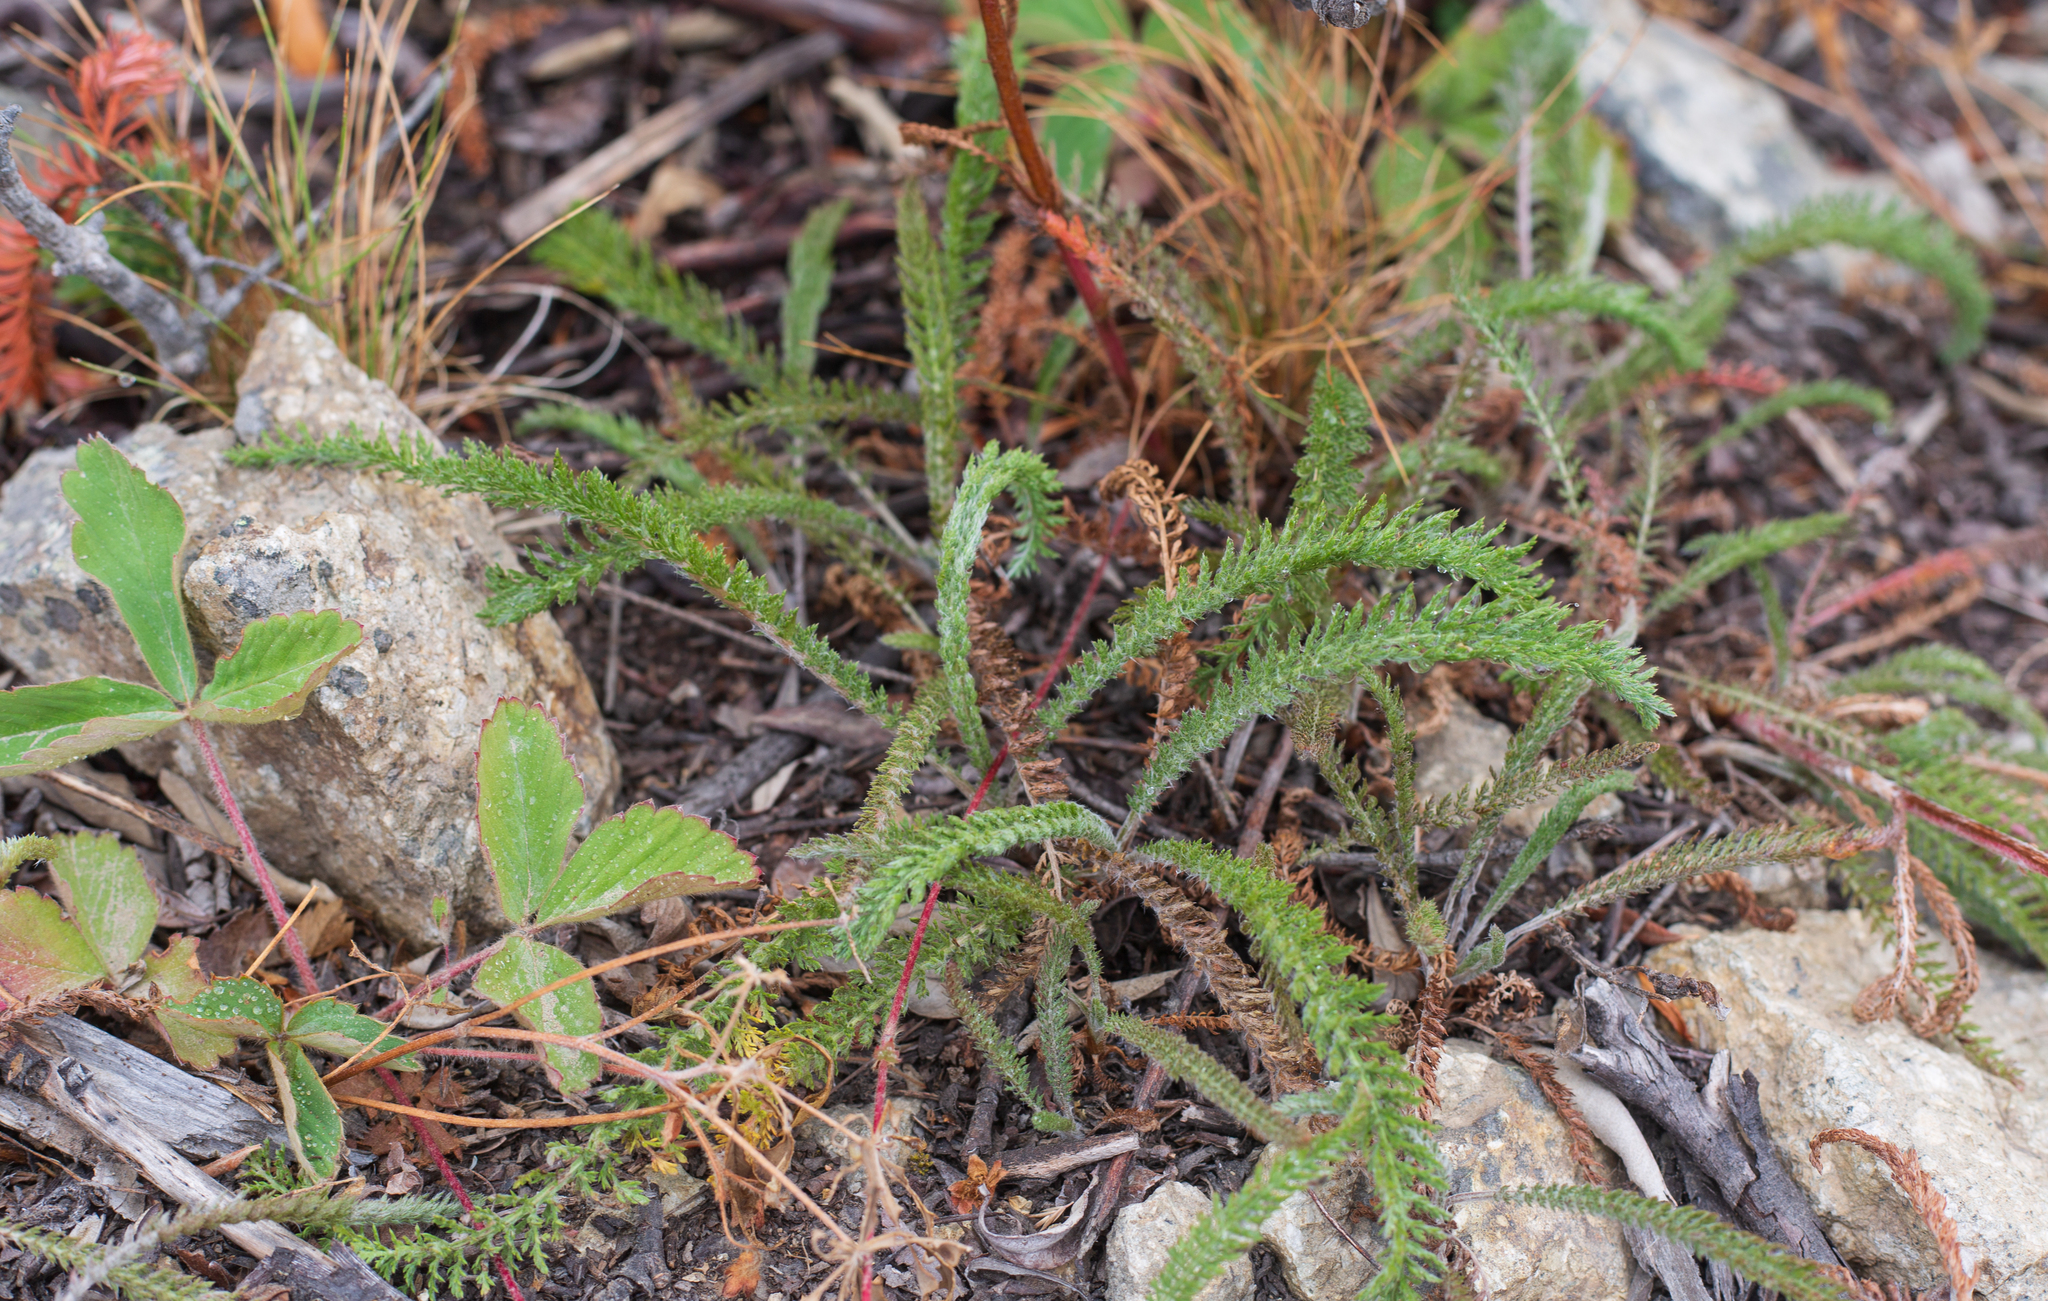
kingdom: Plantae
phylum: Tracheophyta
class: Magnoliopsida
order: Asterales
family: Asteraceae
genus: Achillea
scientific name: Achillea millefolium
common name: Yarrow
